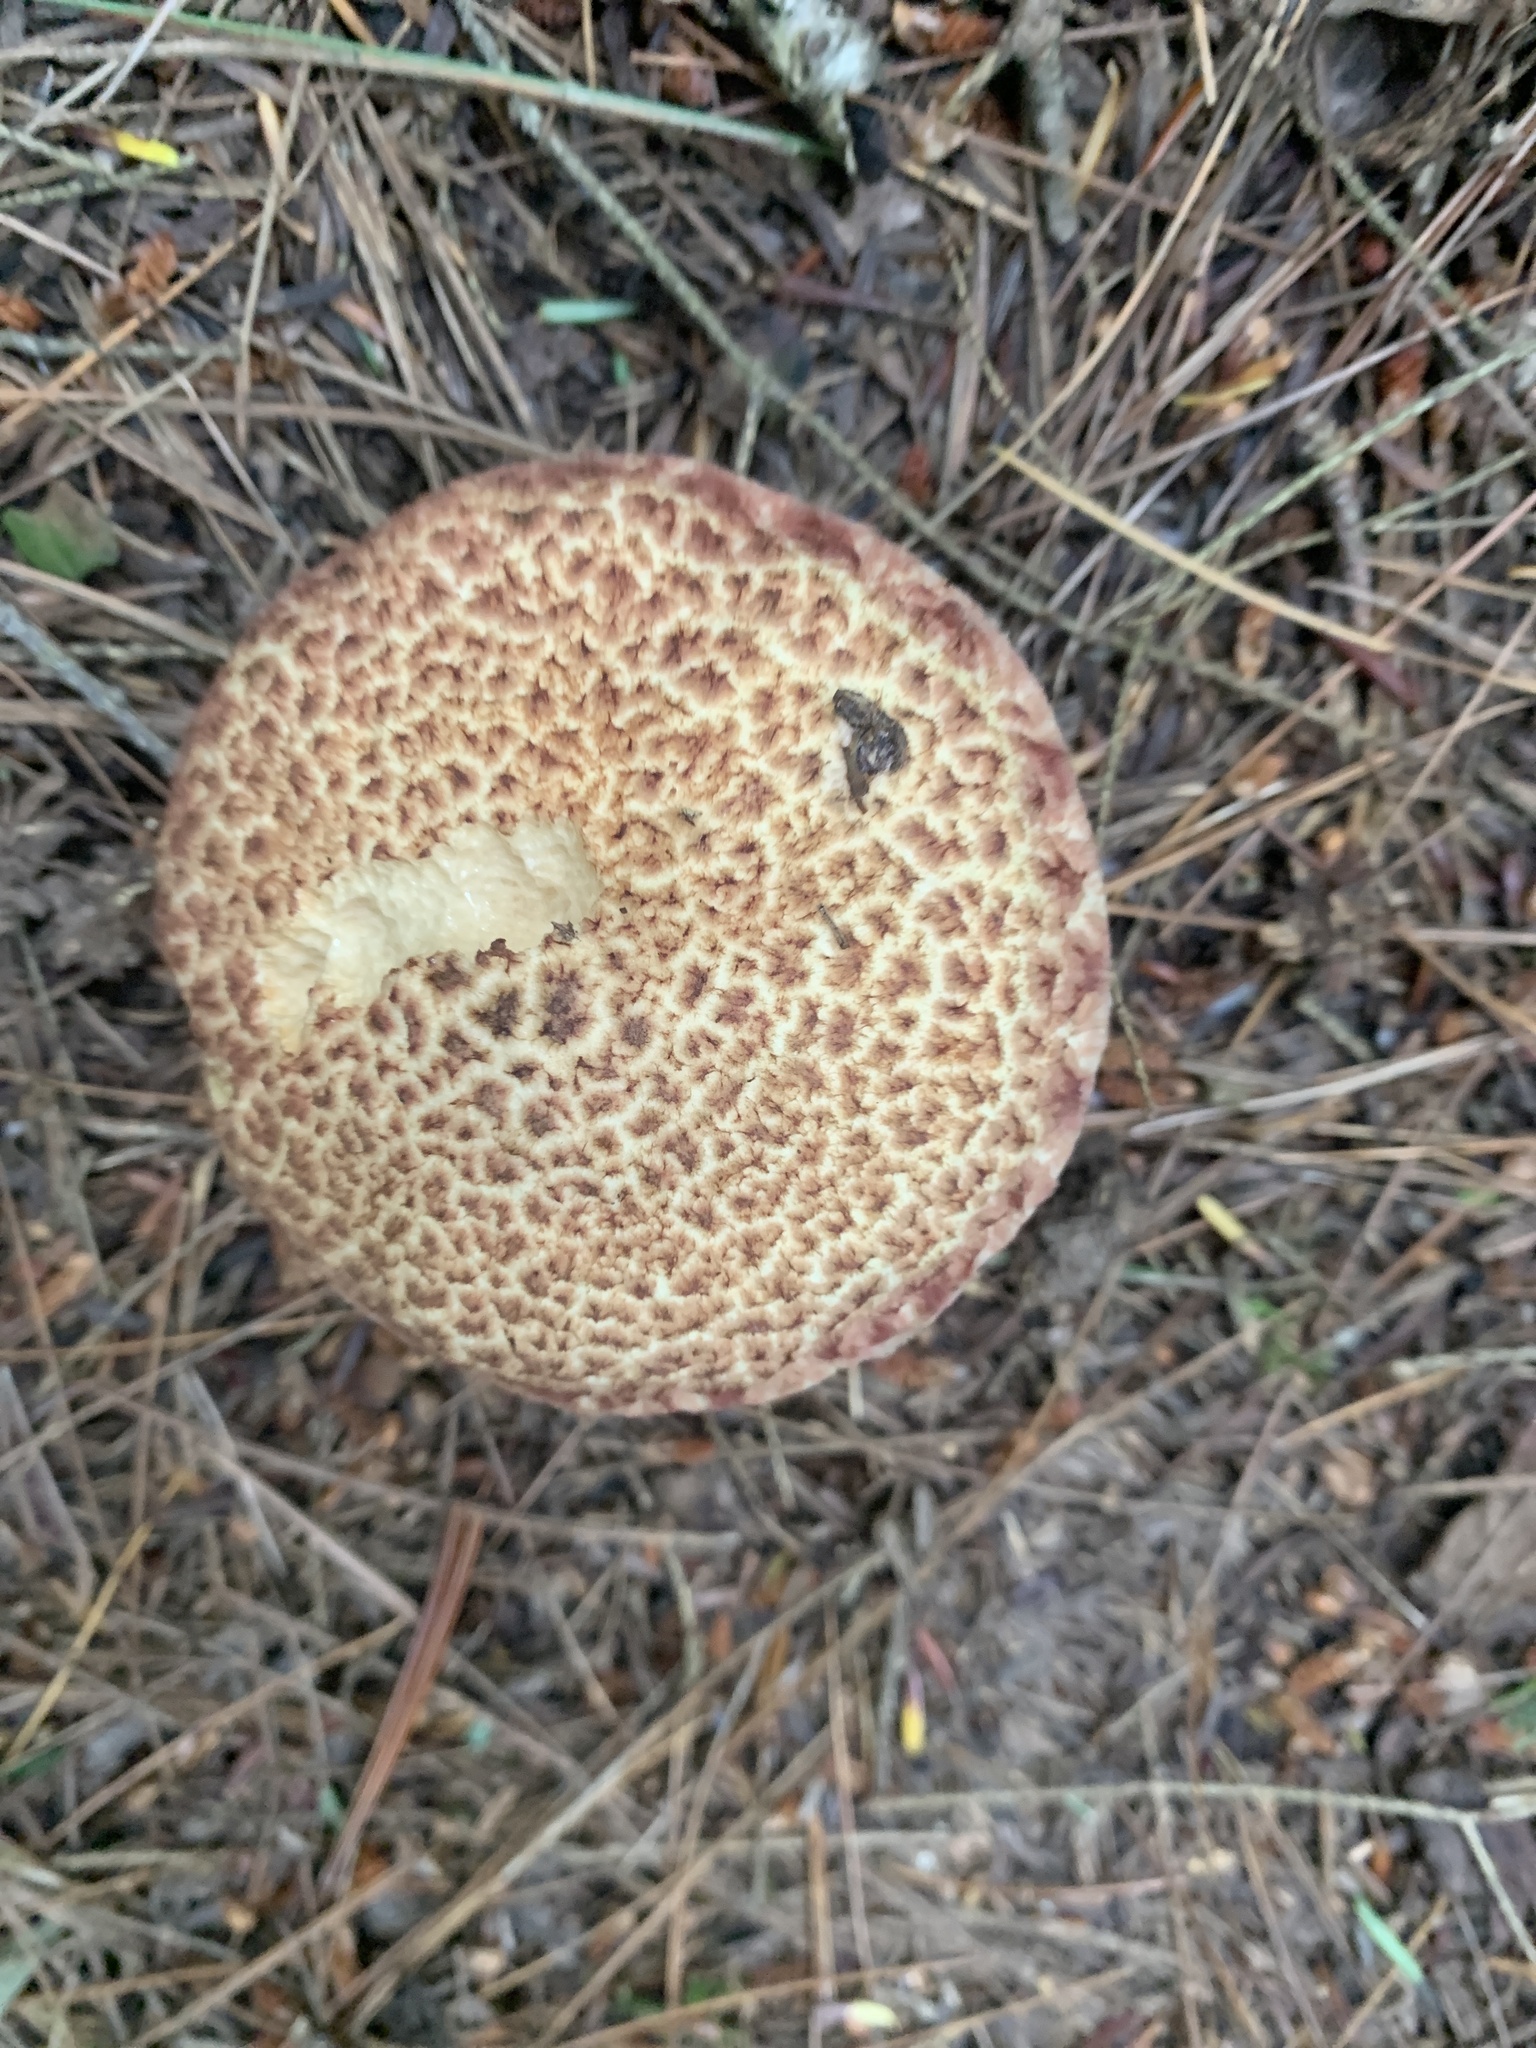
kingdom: Fungi
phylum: Basidiomycota
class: Agaricomycetes
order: Boletales
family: Suillaceae
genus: Suillus
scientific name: Suillus spraguei
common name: Painted suillus
